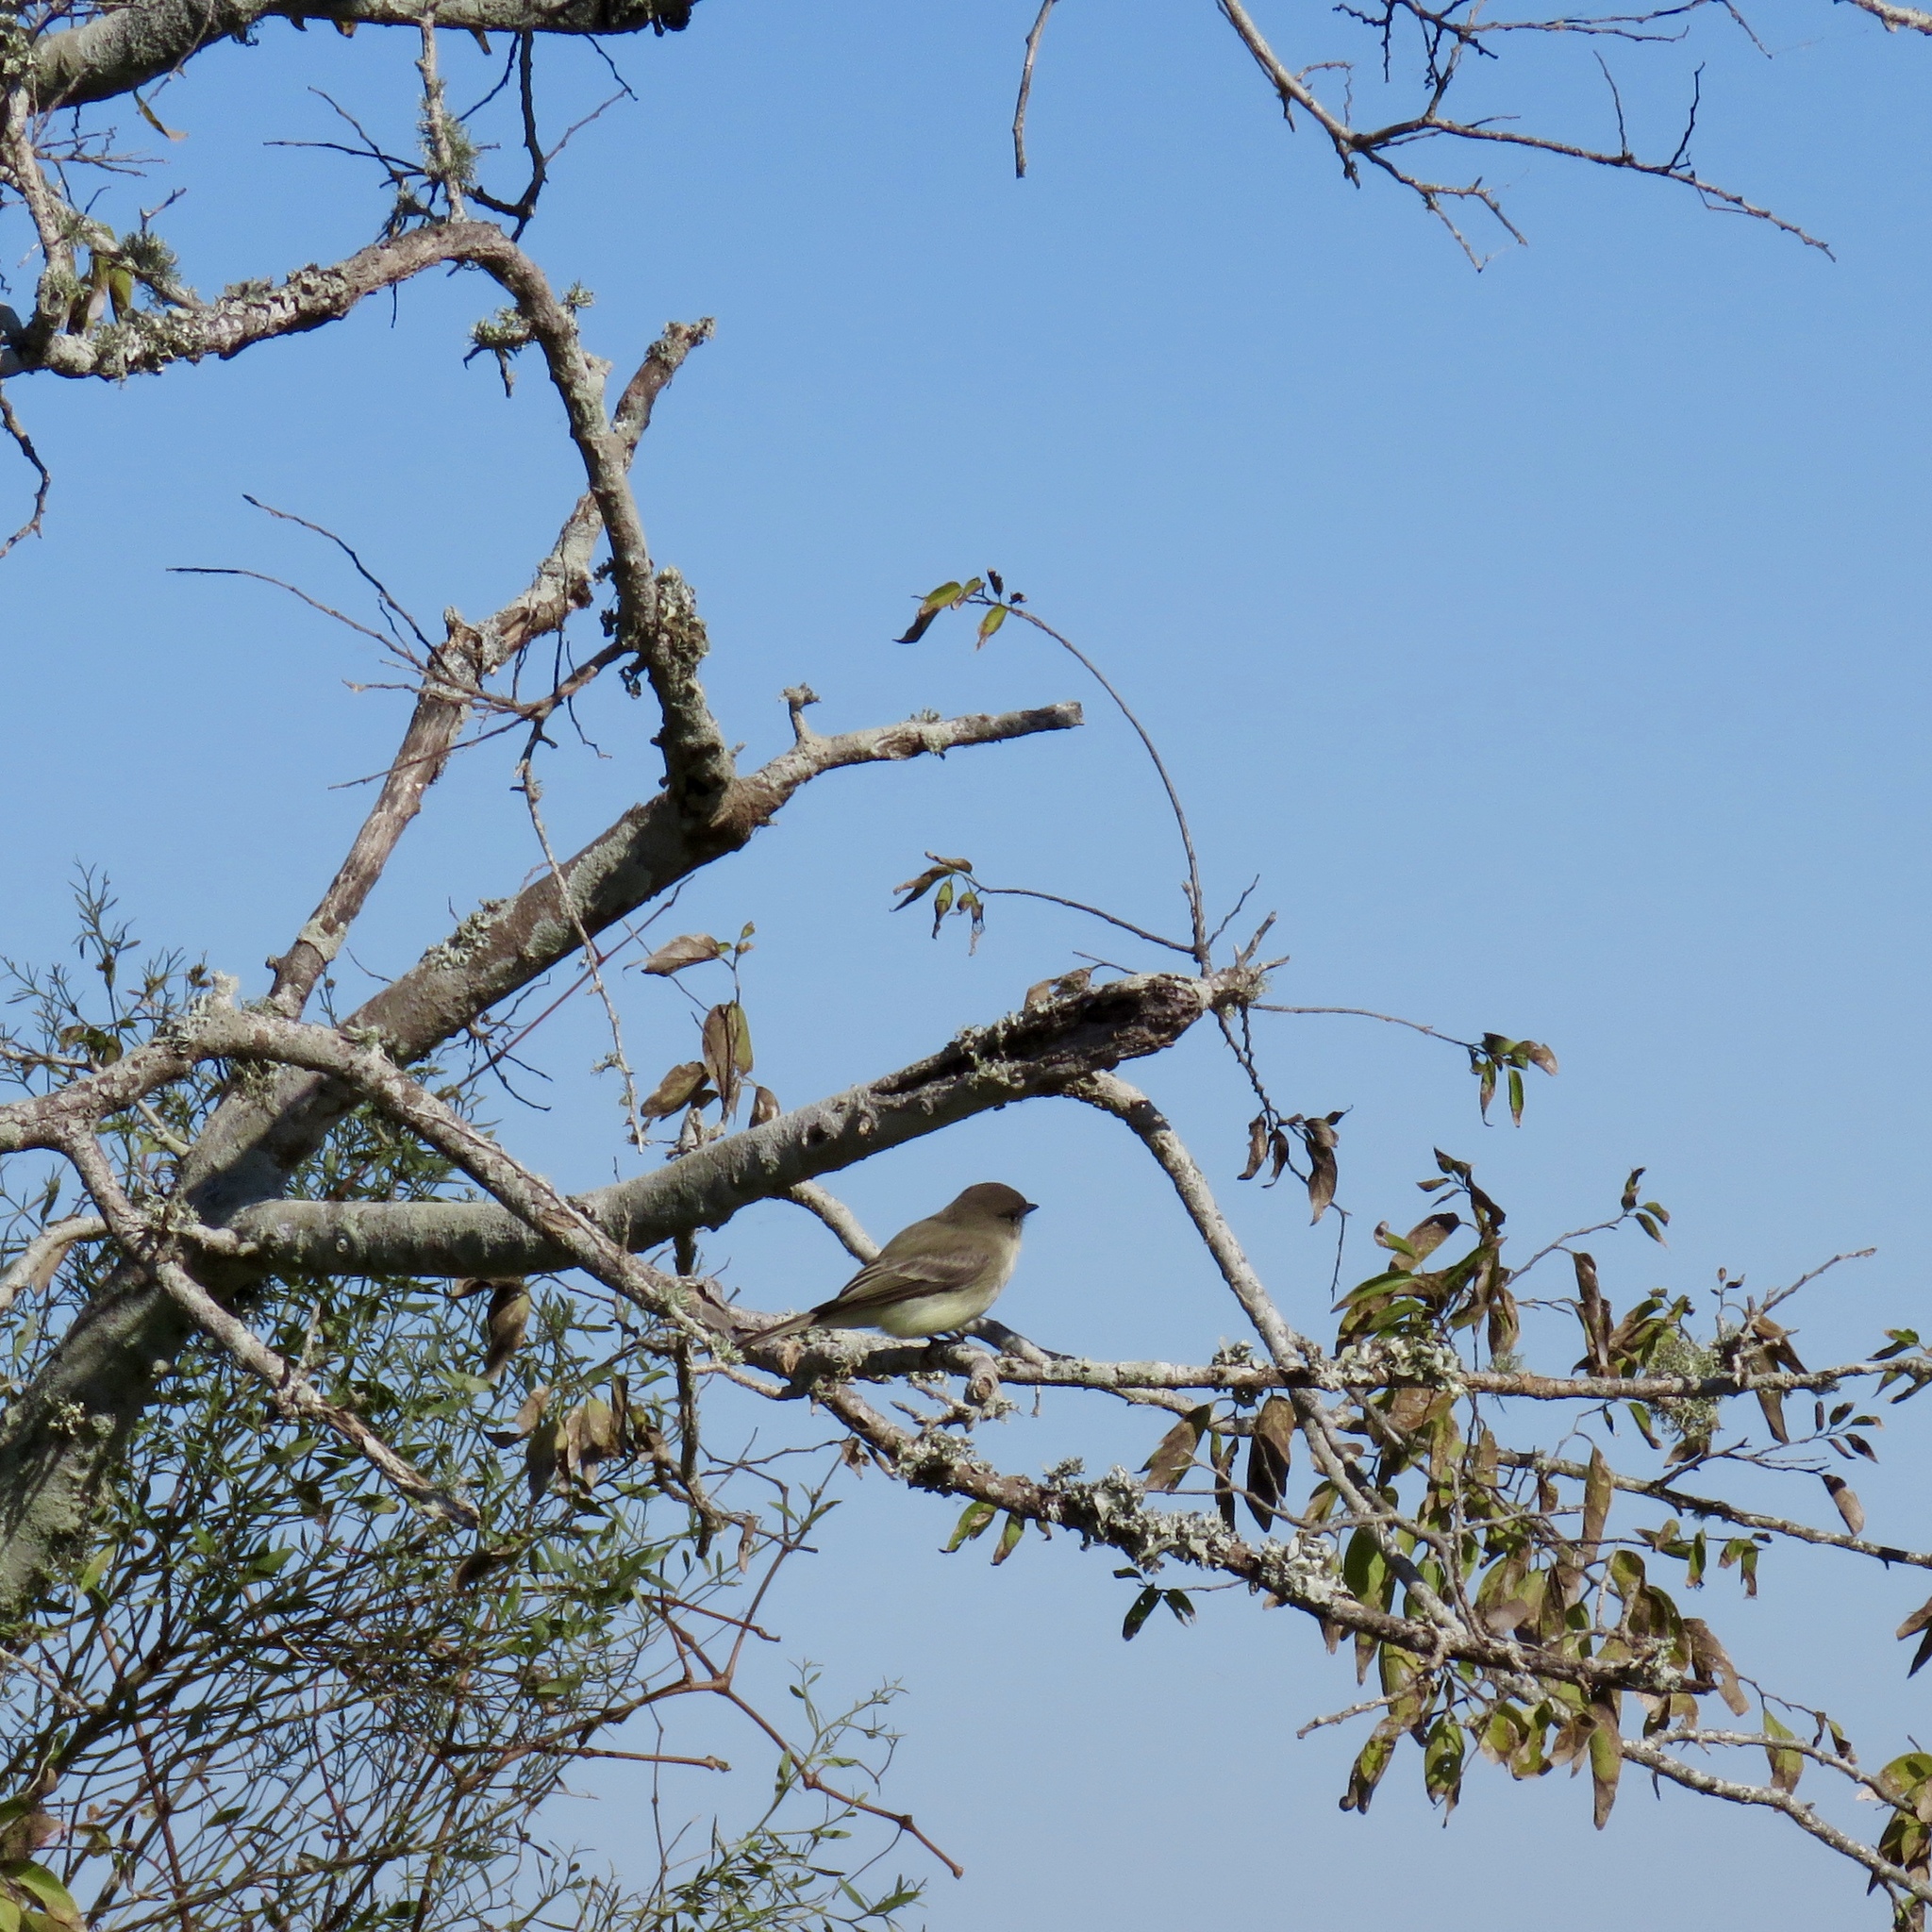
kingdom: Animalia
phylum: Chordata
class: Aves
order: Passeriformes
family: Tyrannidae
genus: Sayornis
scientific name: Sayornis phoebe
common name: Eastern phoebe
